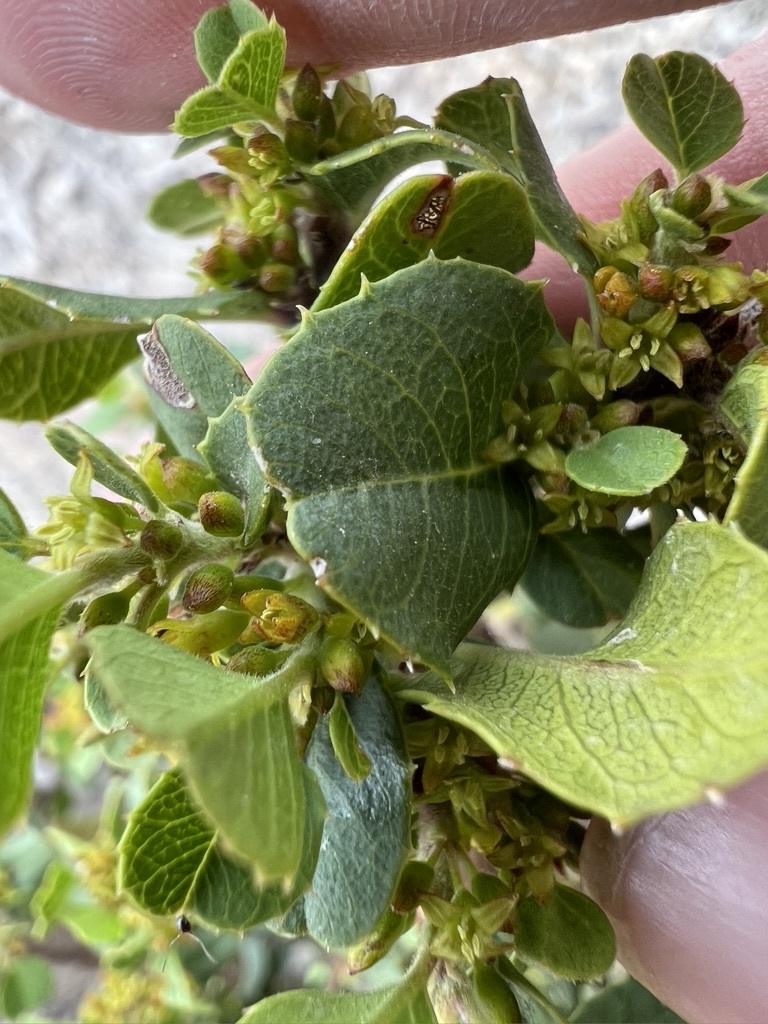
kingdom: Plantae
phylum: Tracheophyta
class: Magnoliopsida
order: Rosales
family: Rhamnaceae
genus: Endotropis
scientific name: Endotropis crocea
